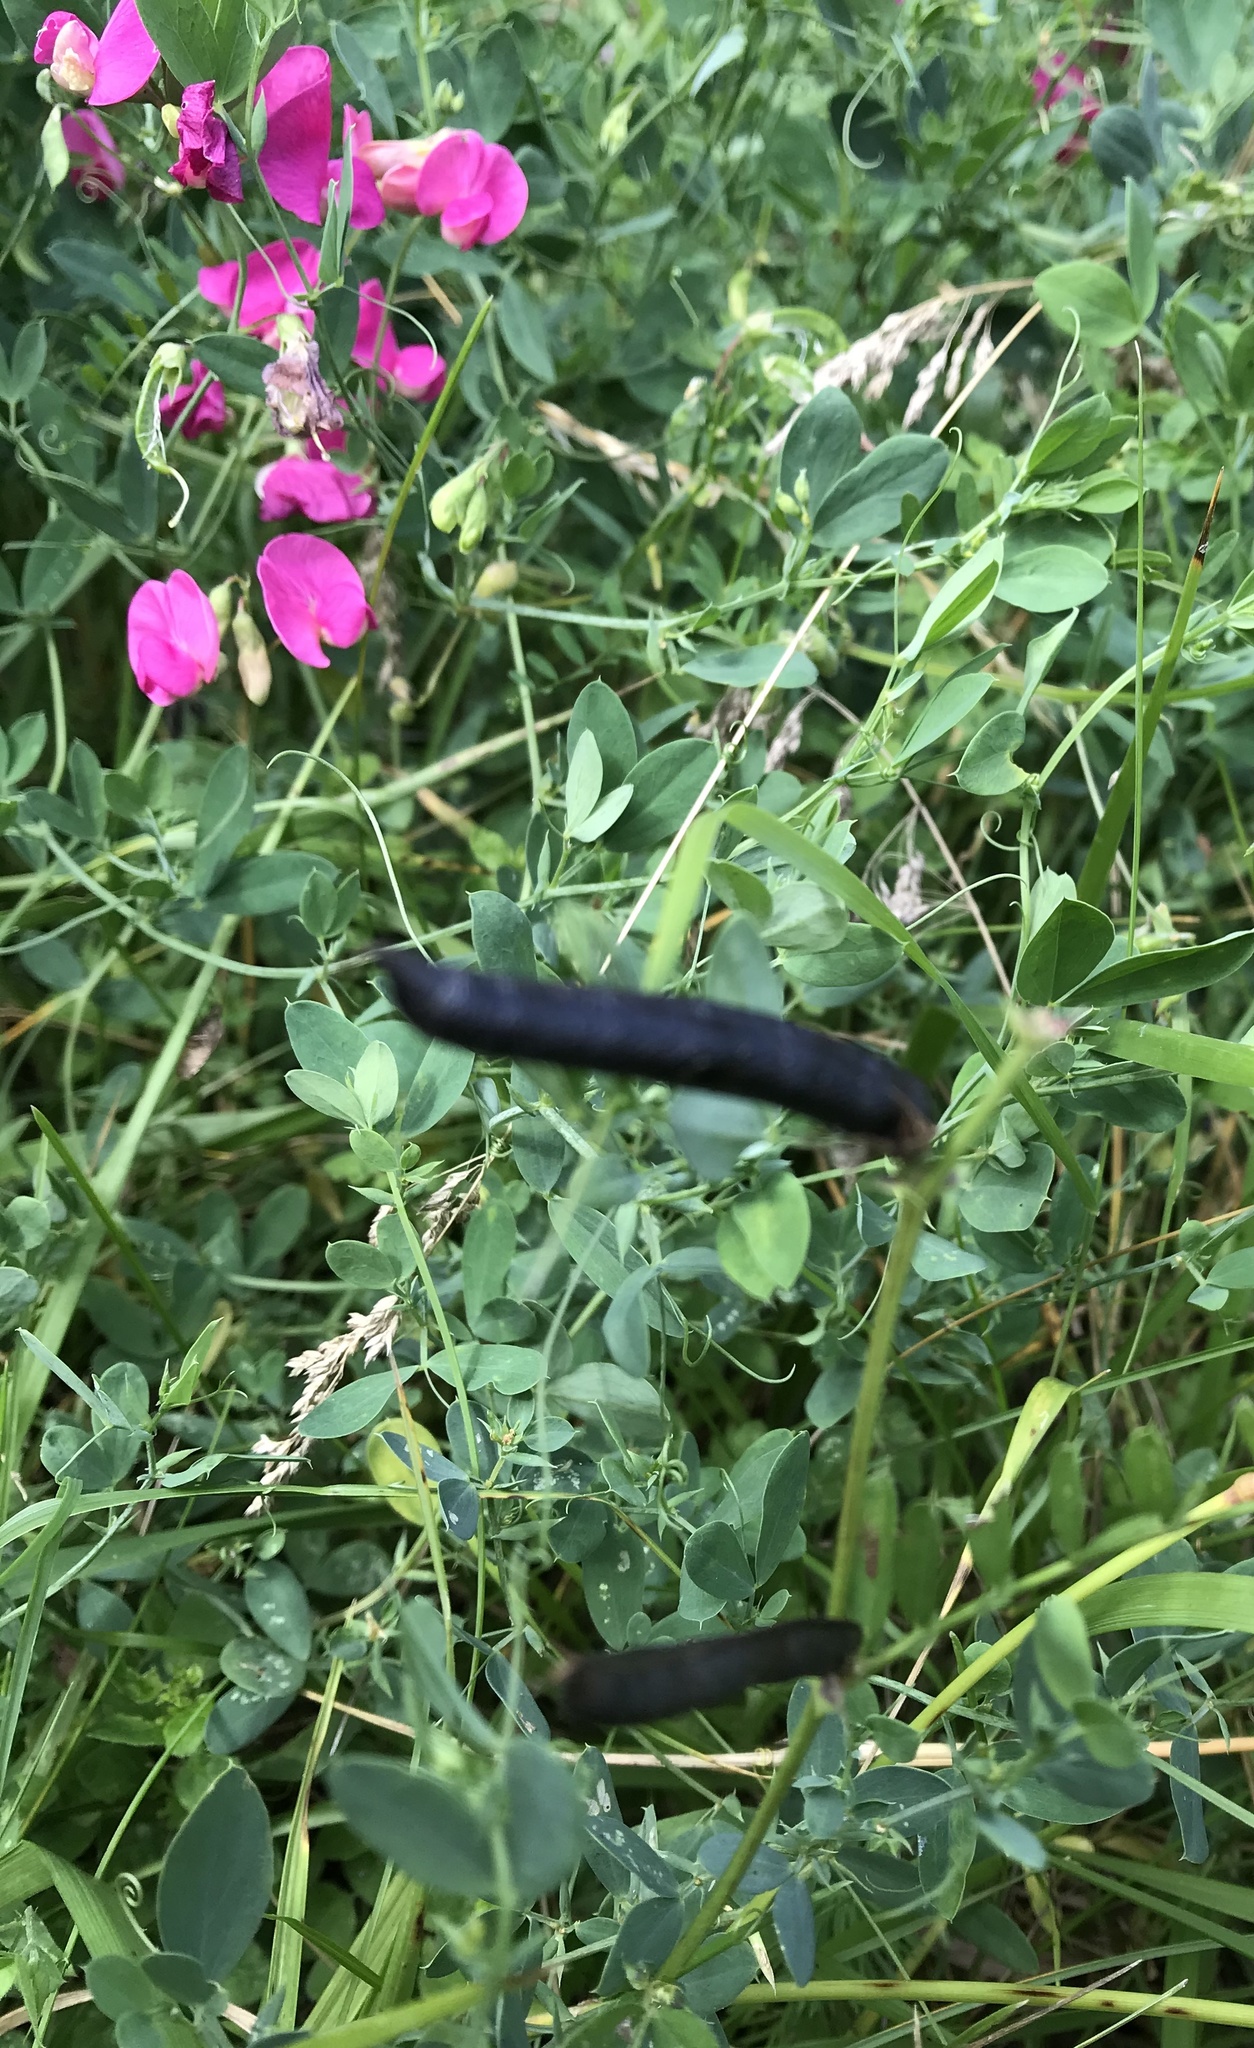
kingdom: Plantae
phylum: Tracheophyta
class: Magnoliopsida
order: Fabales
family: Fabaceae
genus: Lathyrus
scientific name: Lathyrus tuberosus
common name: Tuberous pea
